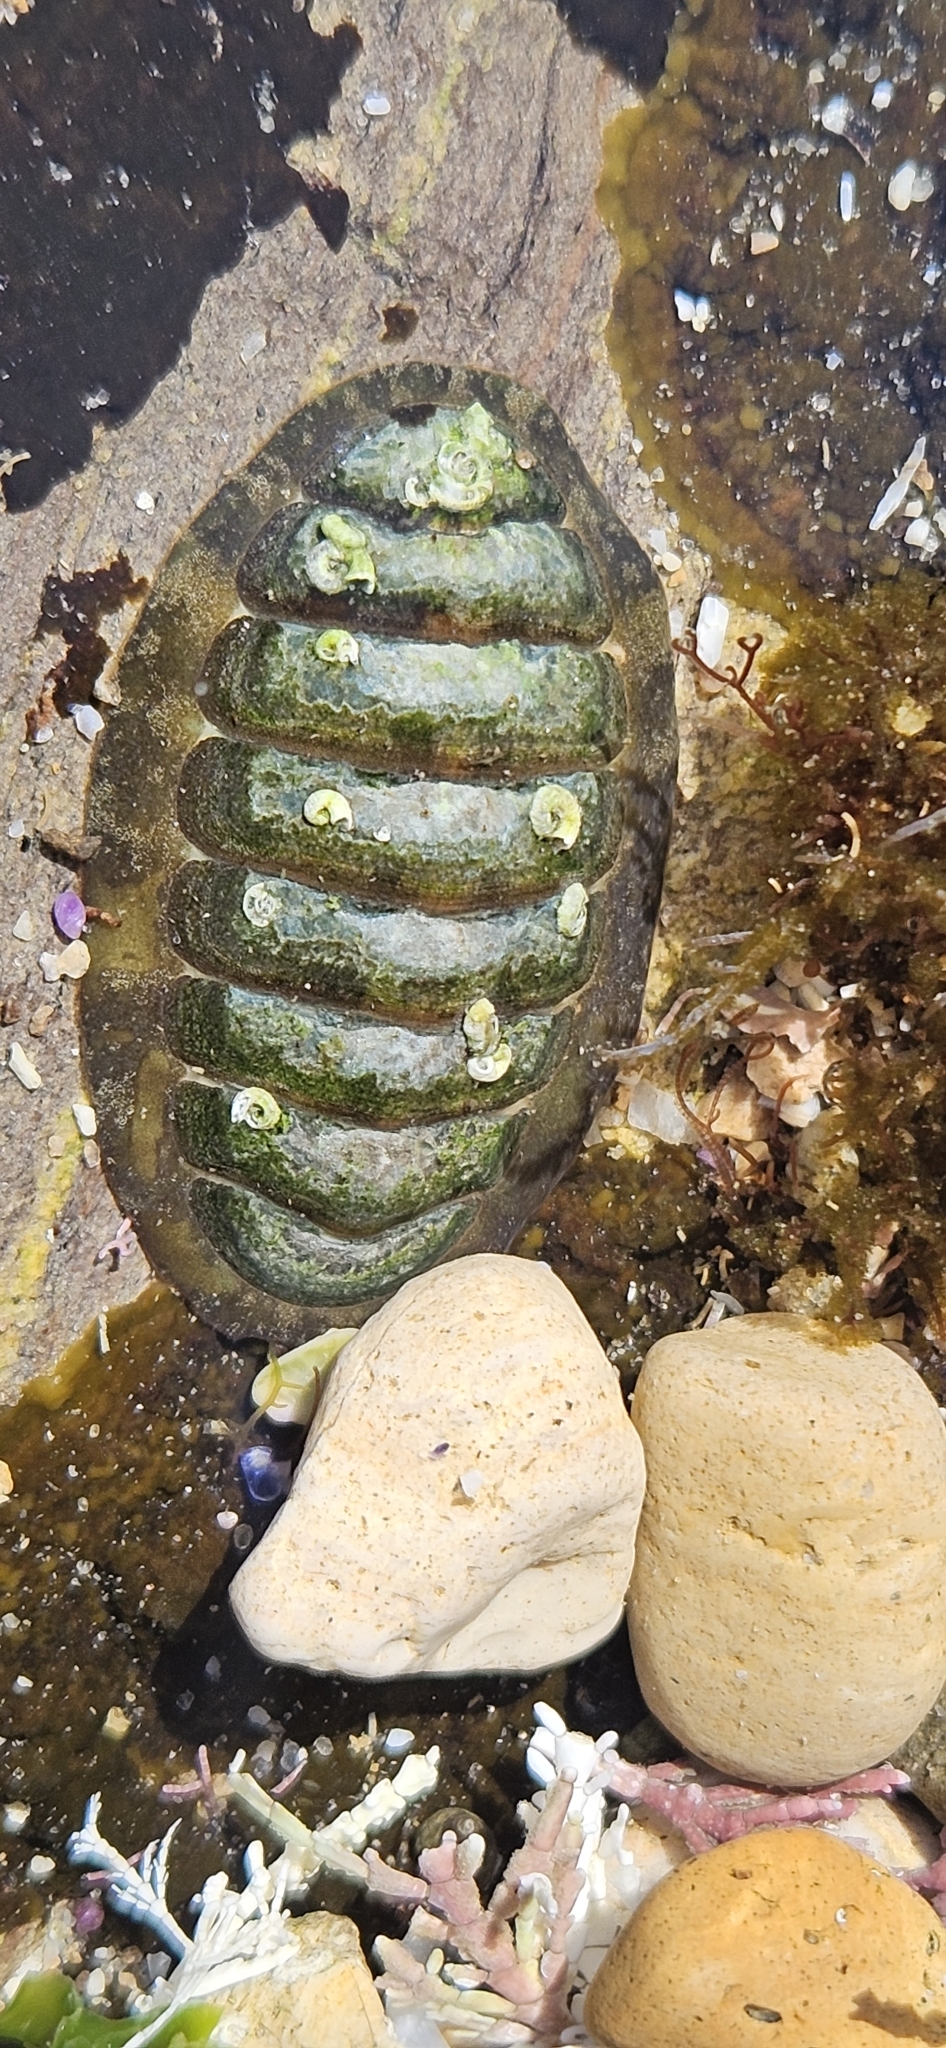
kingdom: Animalia
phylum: Mollusca
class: Polyplacophora
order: Chitonida
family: Tonicellidae
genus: Cyanoplax
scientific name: Cyanoplax hartwegii
